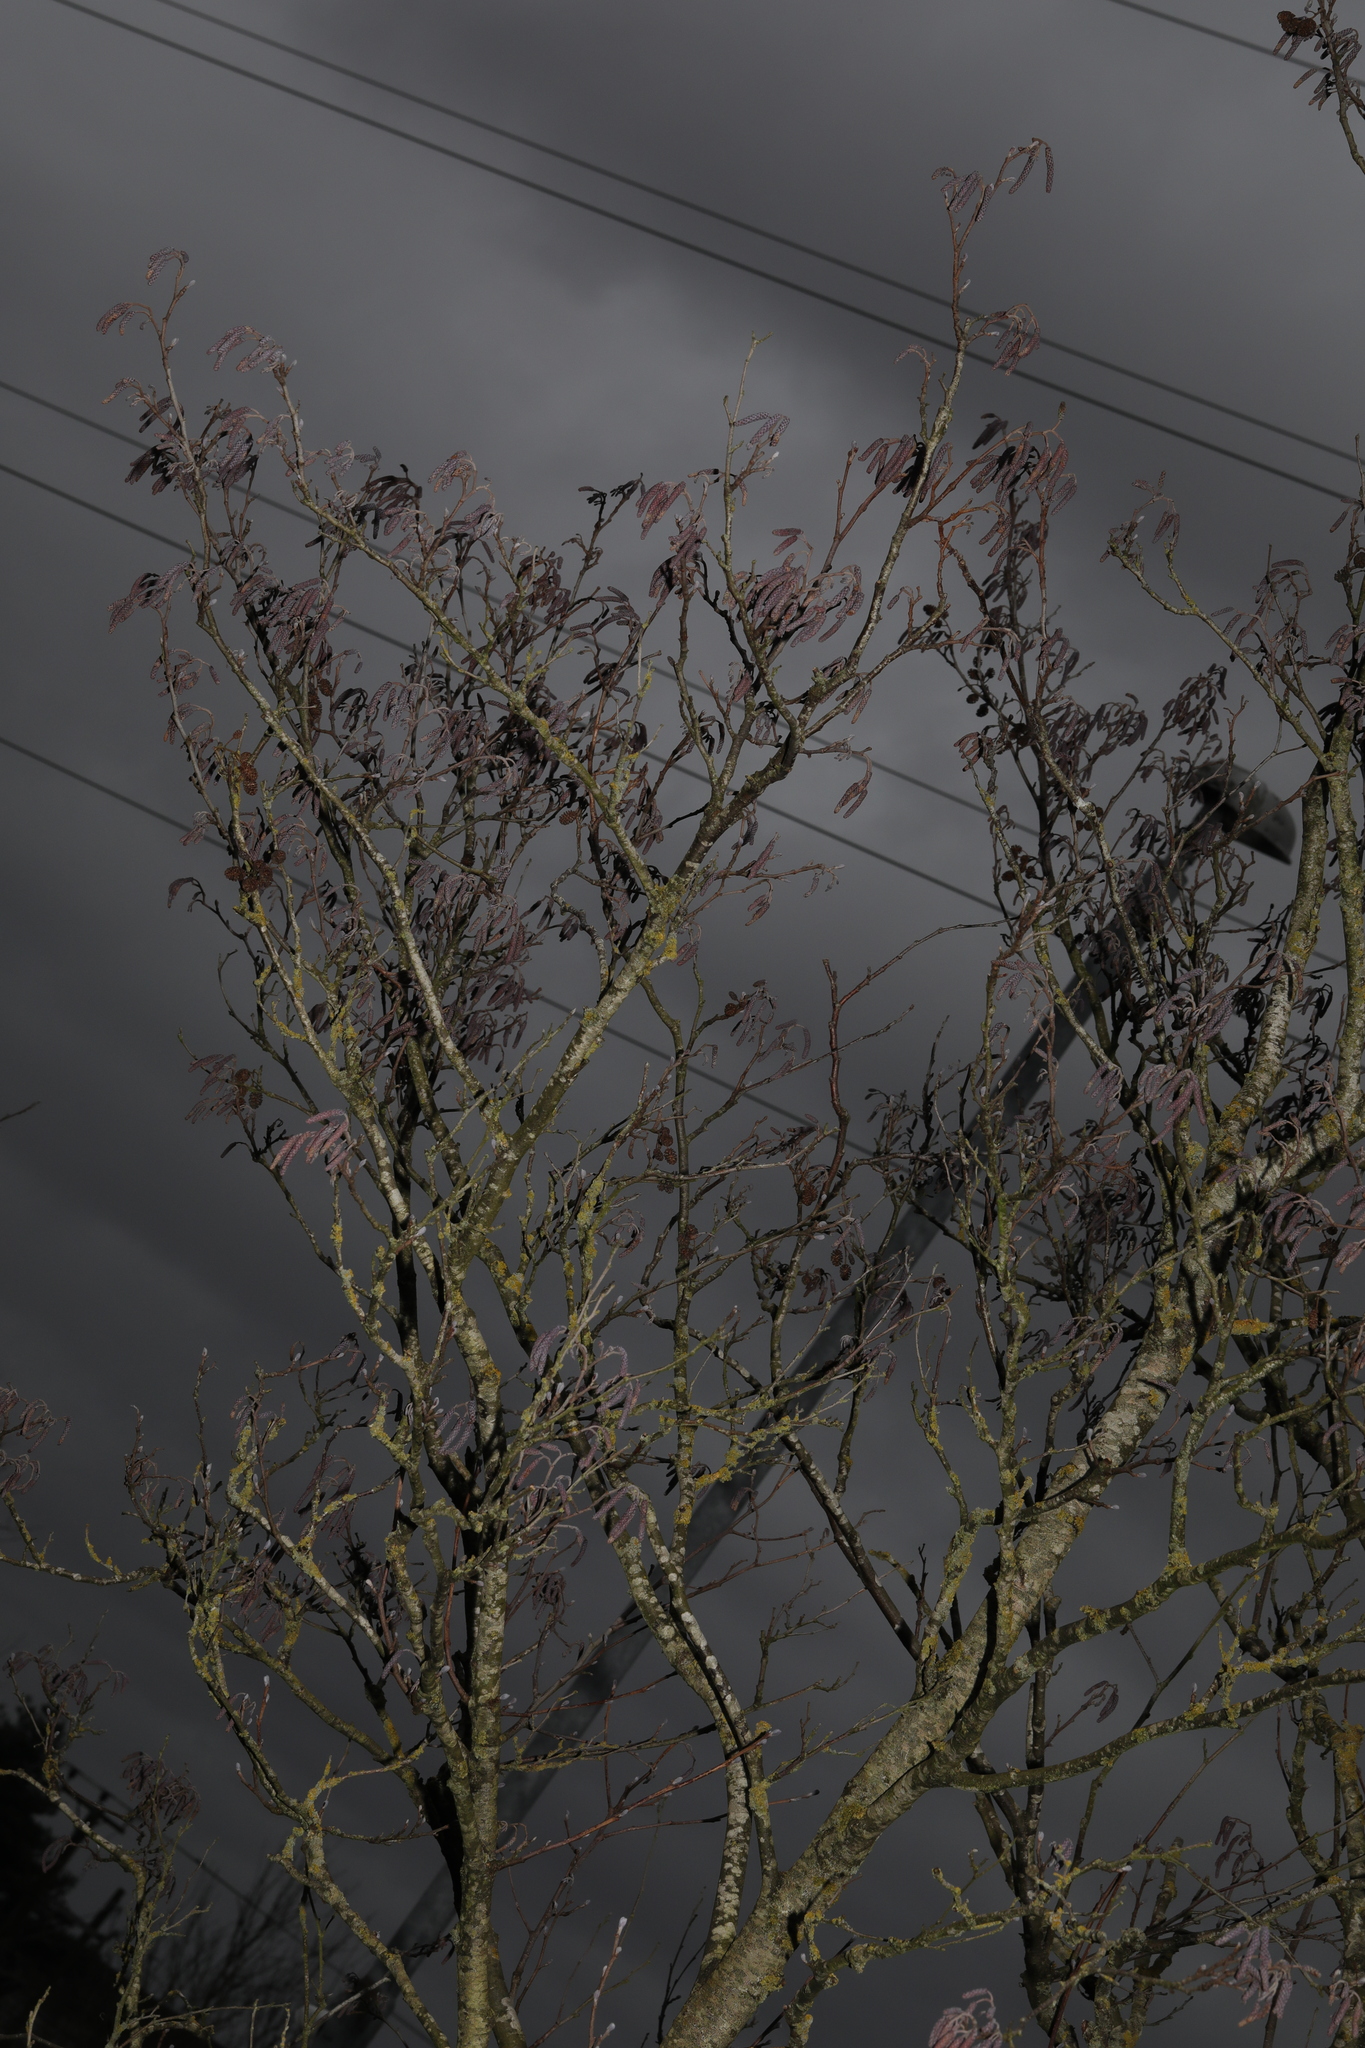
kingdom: Plantae
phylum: Tracheophyta
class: Magnoliopsida
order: Fagales
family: Betulaceae
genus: Alnus
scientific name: Alnus glutinosa
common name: Black alder
